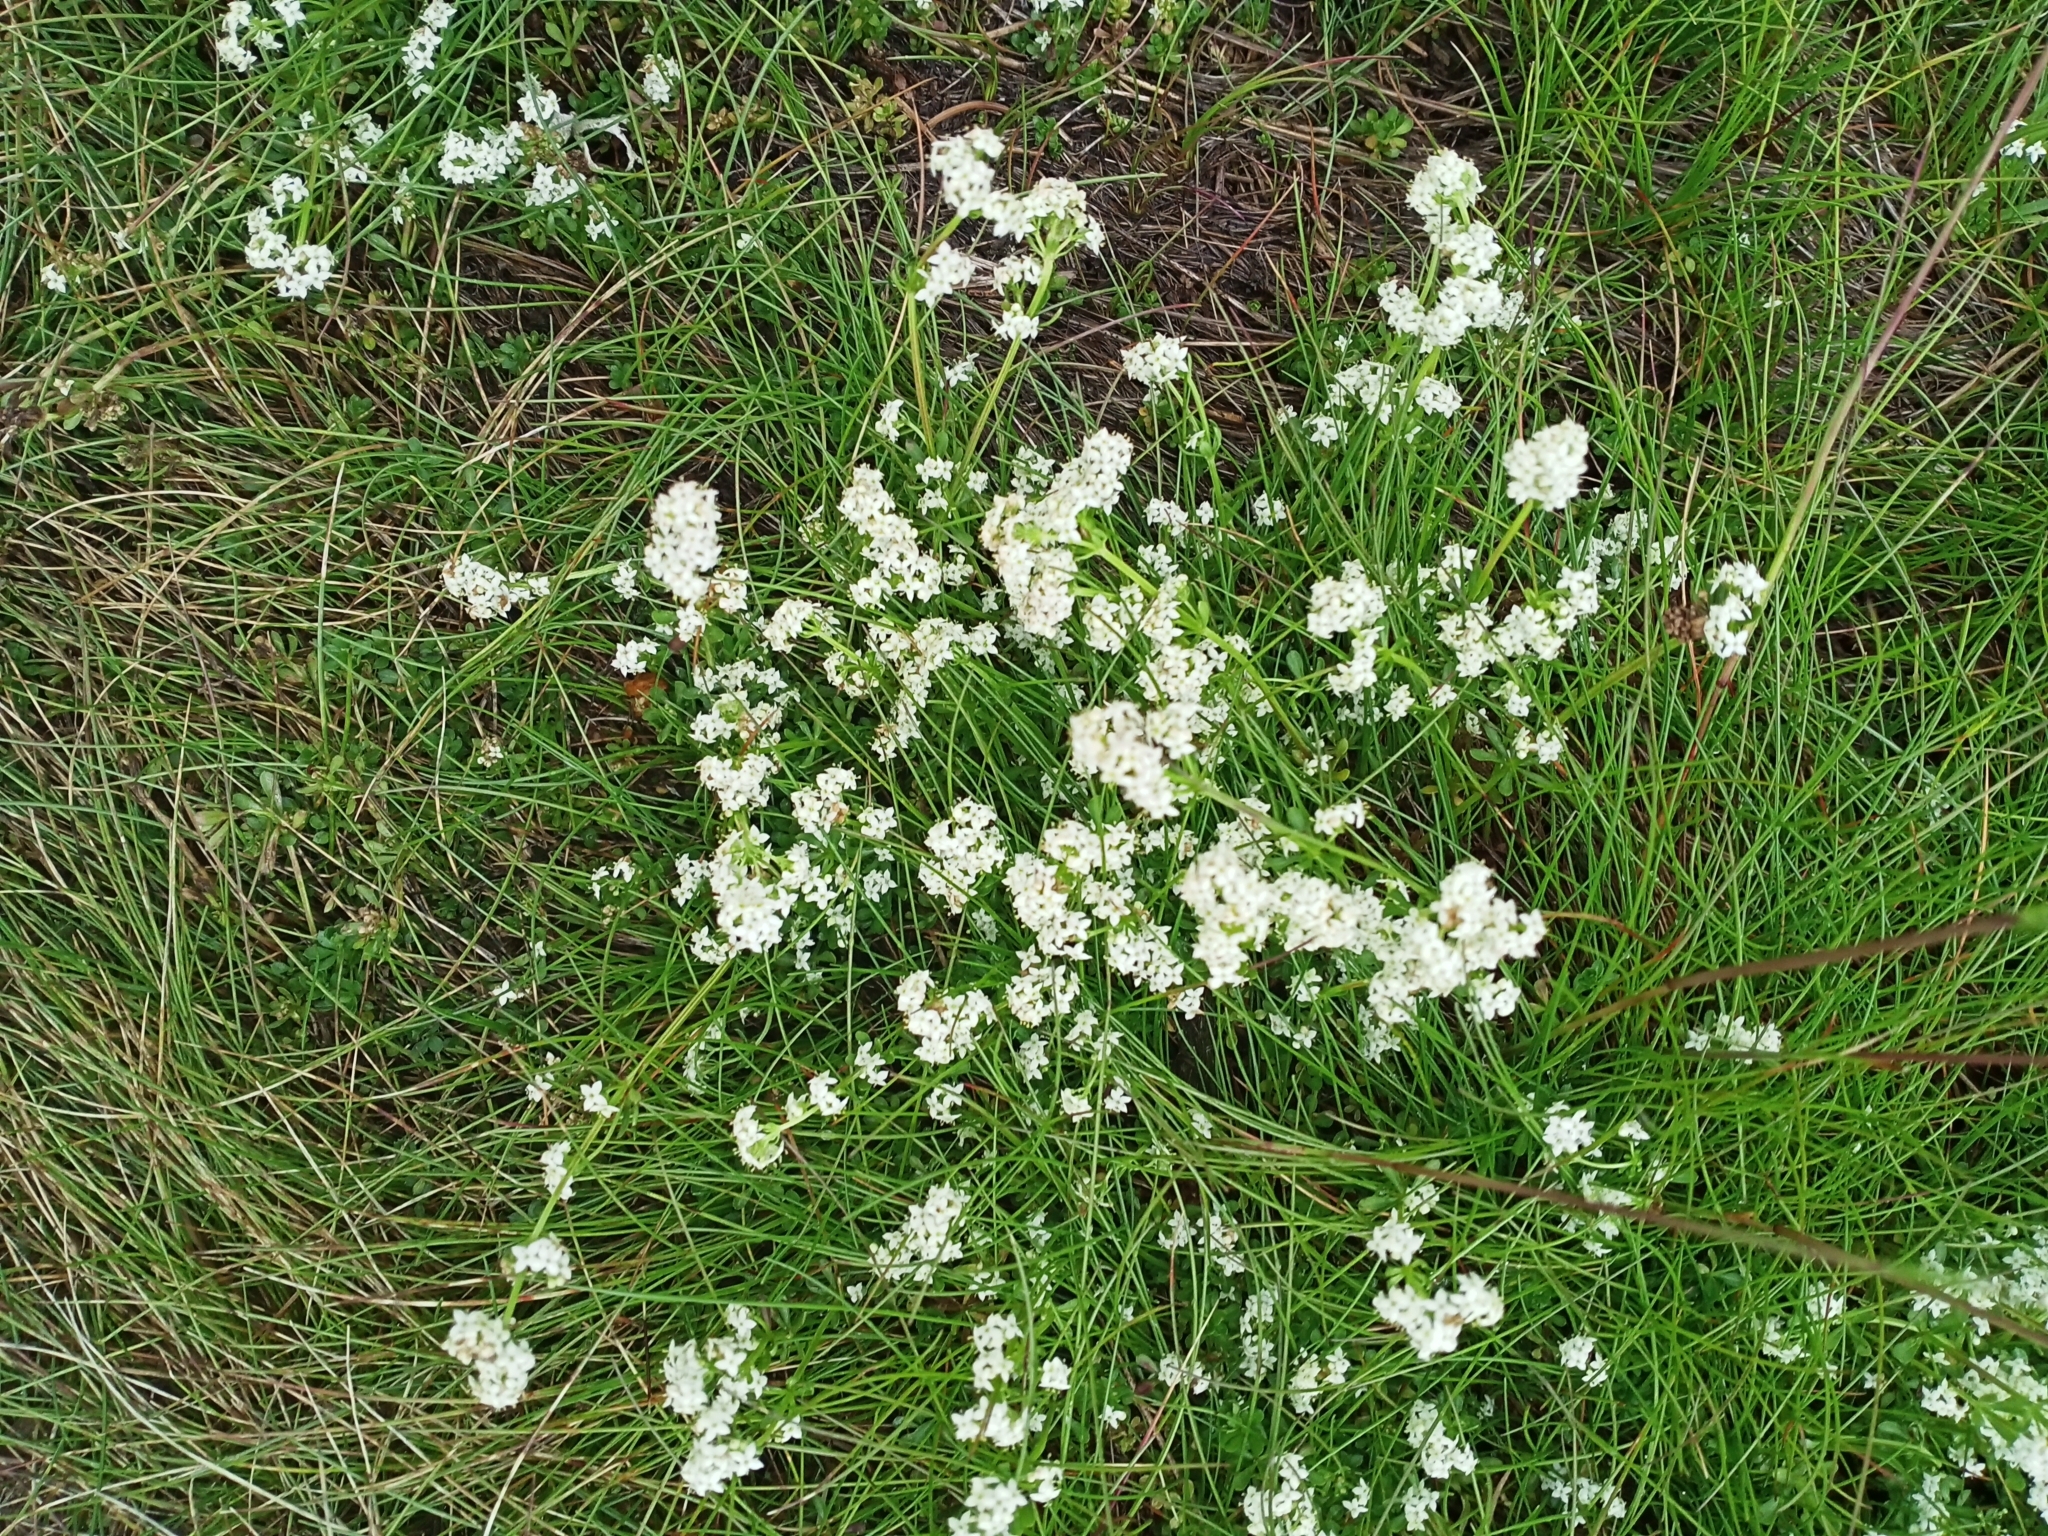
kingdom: Plantae
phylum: Tracheophyta
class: Magnoliopsida
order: Gentianales
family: Rubiaceae
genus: Galium
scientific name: Galium saxatile
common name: Heath bedstraw
